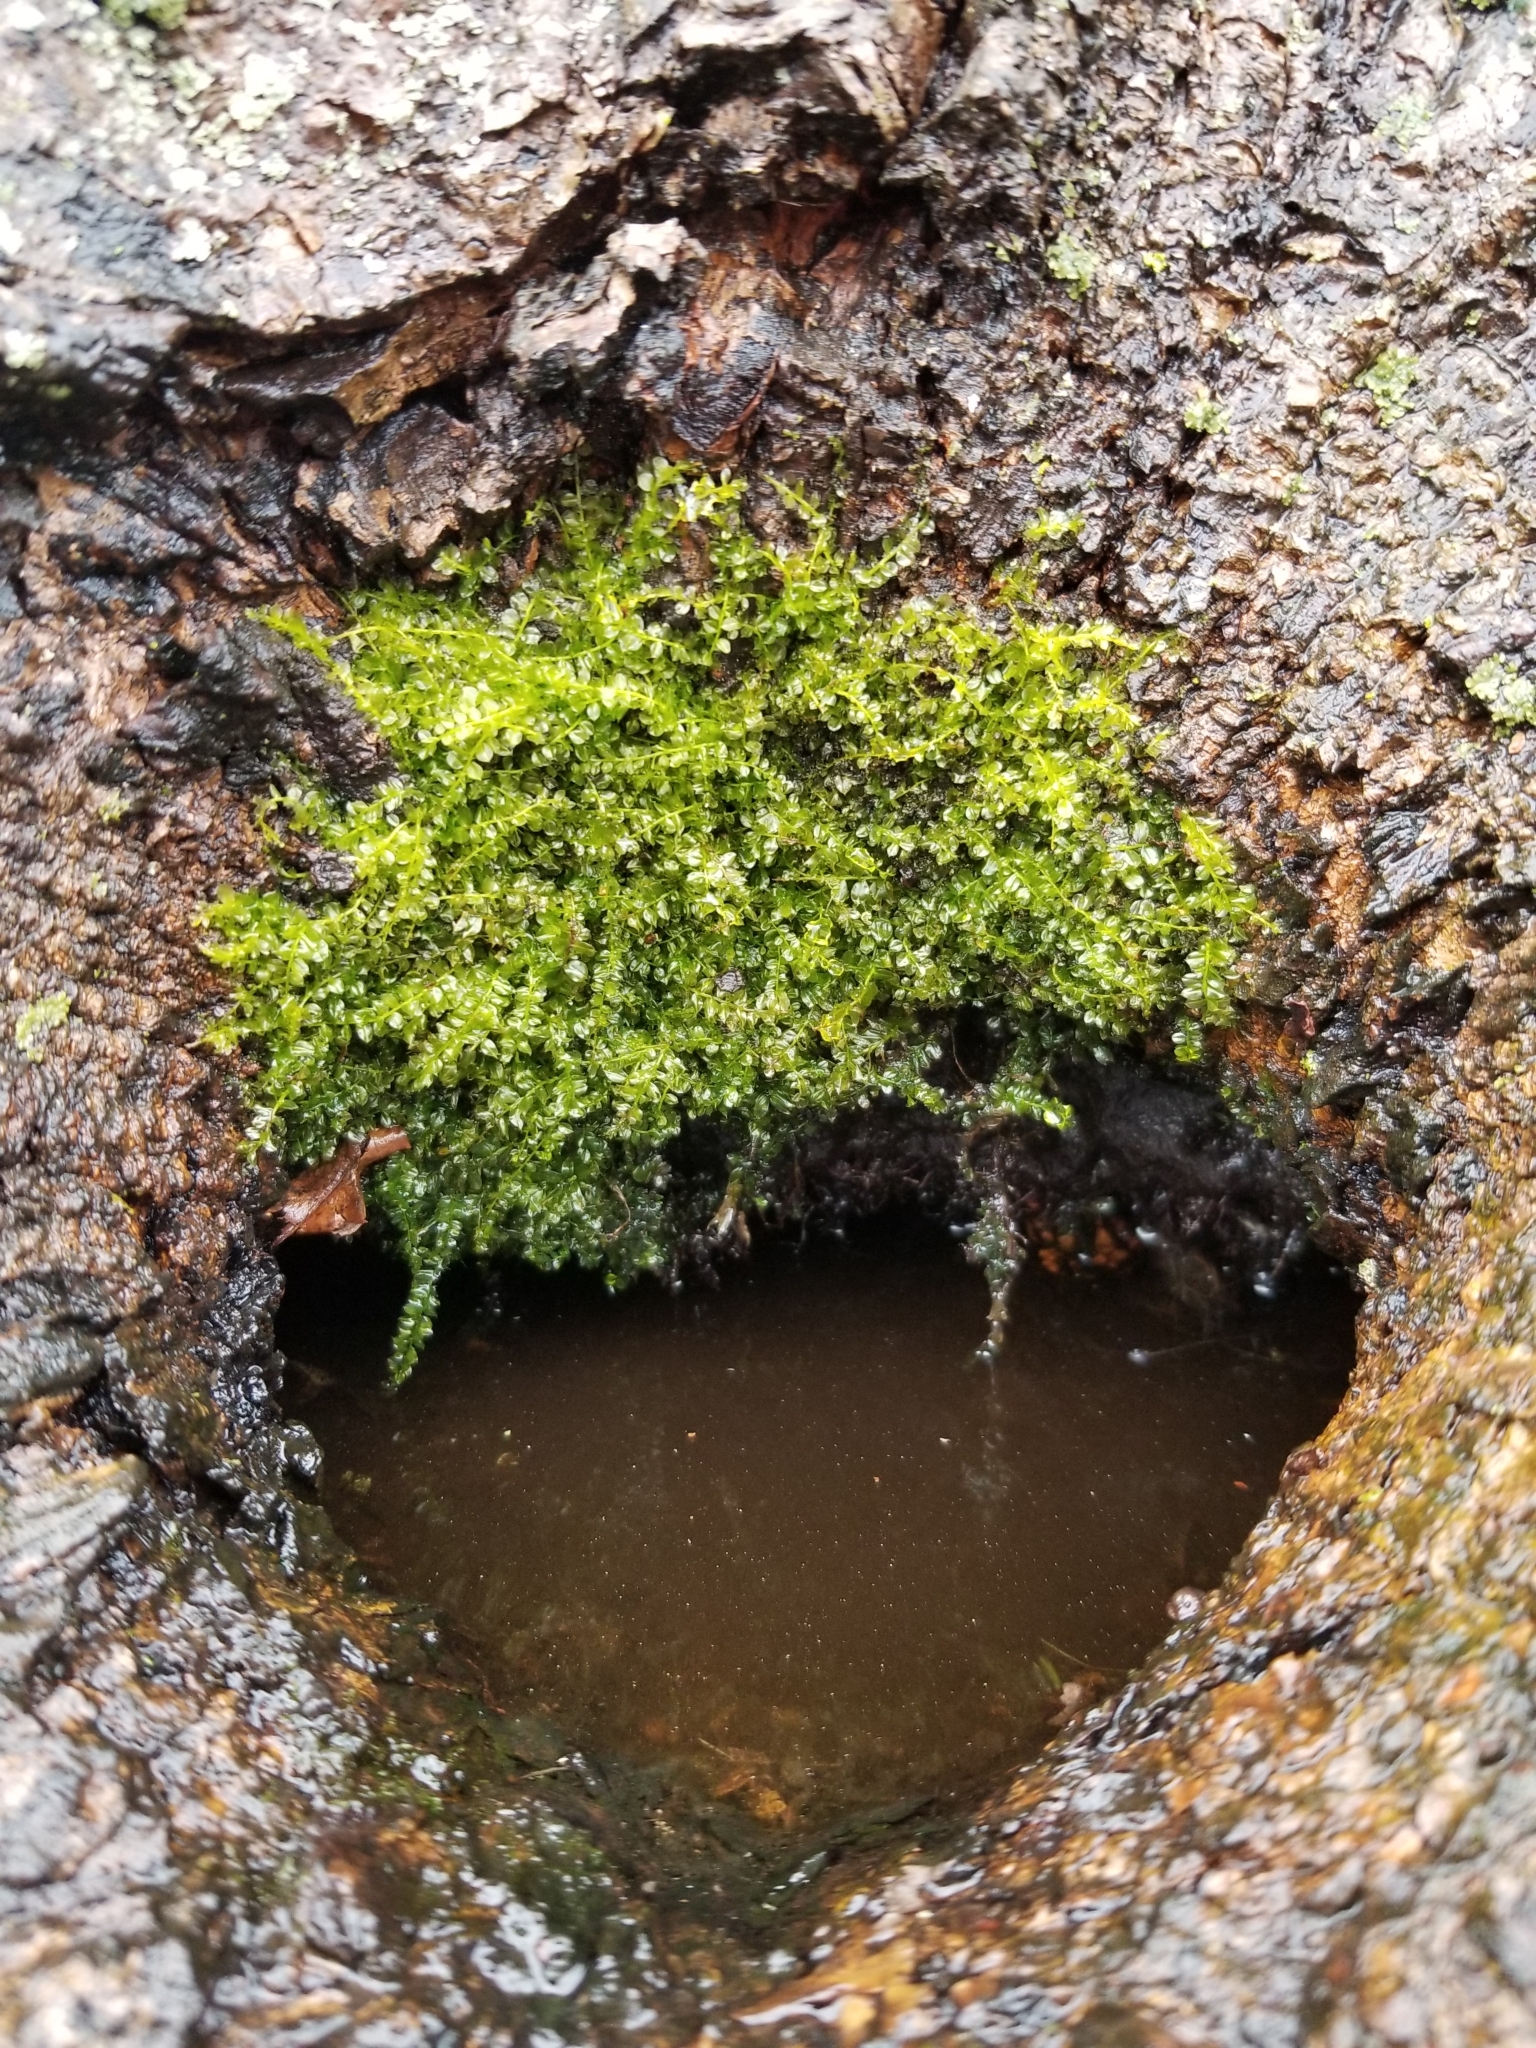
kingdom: Plantae
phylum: Bryophyta
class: Bryopsida
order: Bryales
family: Mniaceae
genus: Plagiomnium
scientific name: Plagiomnium cuspidatum
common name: Woodsy leafy moss
